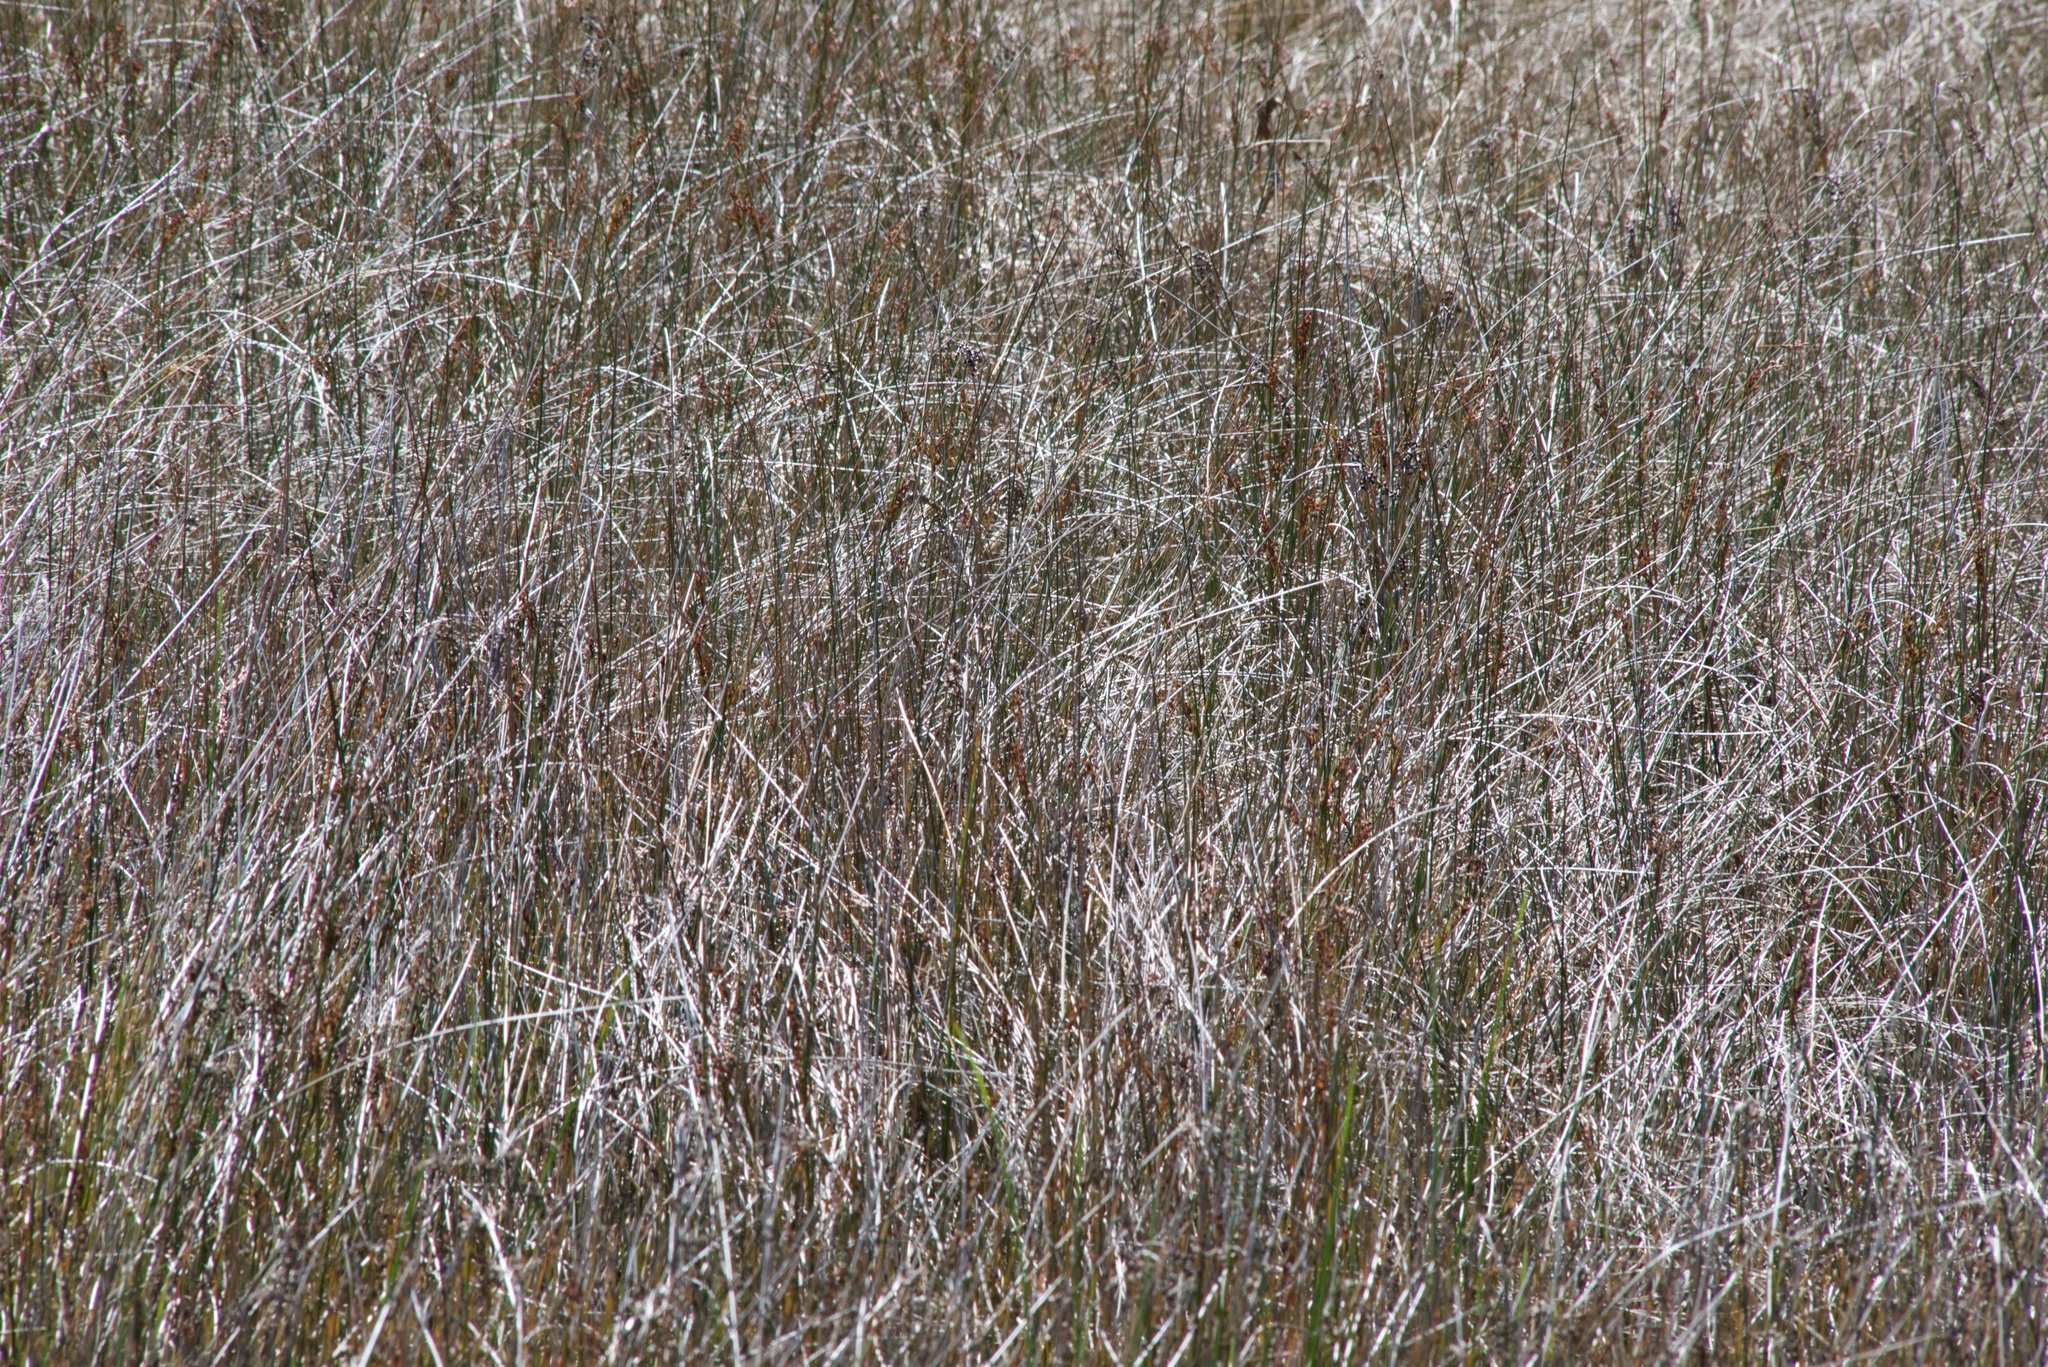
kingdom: Plantae
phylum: Tracheophyta
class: Liliopsida
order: Poales
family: Restionaceae
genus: Apodasmia
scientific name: Apodasmia similis
